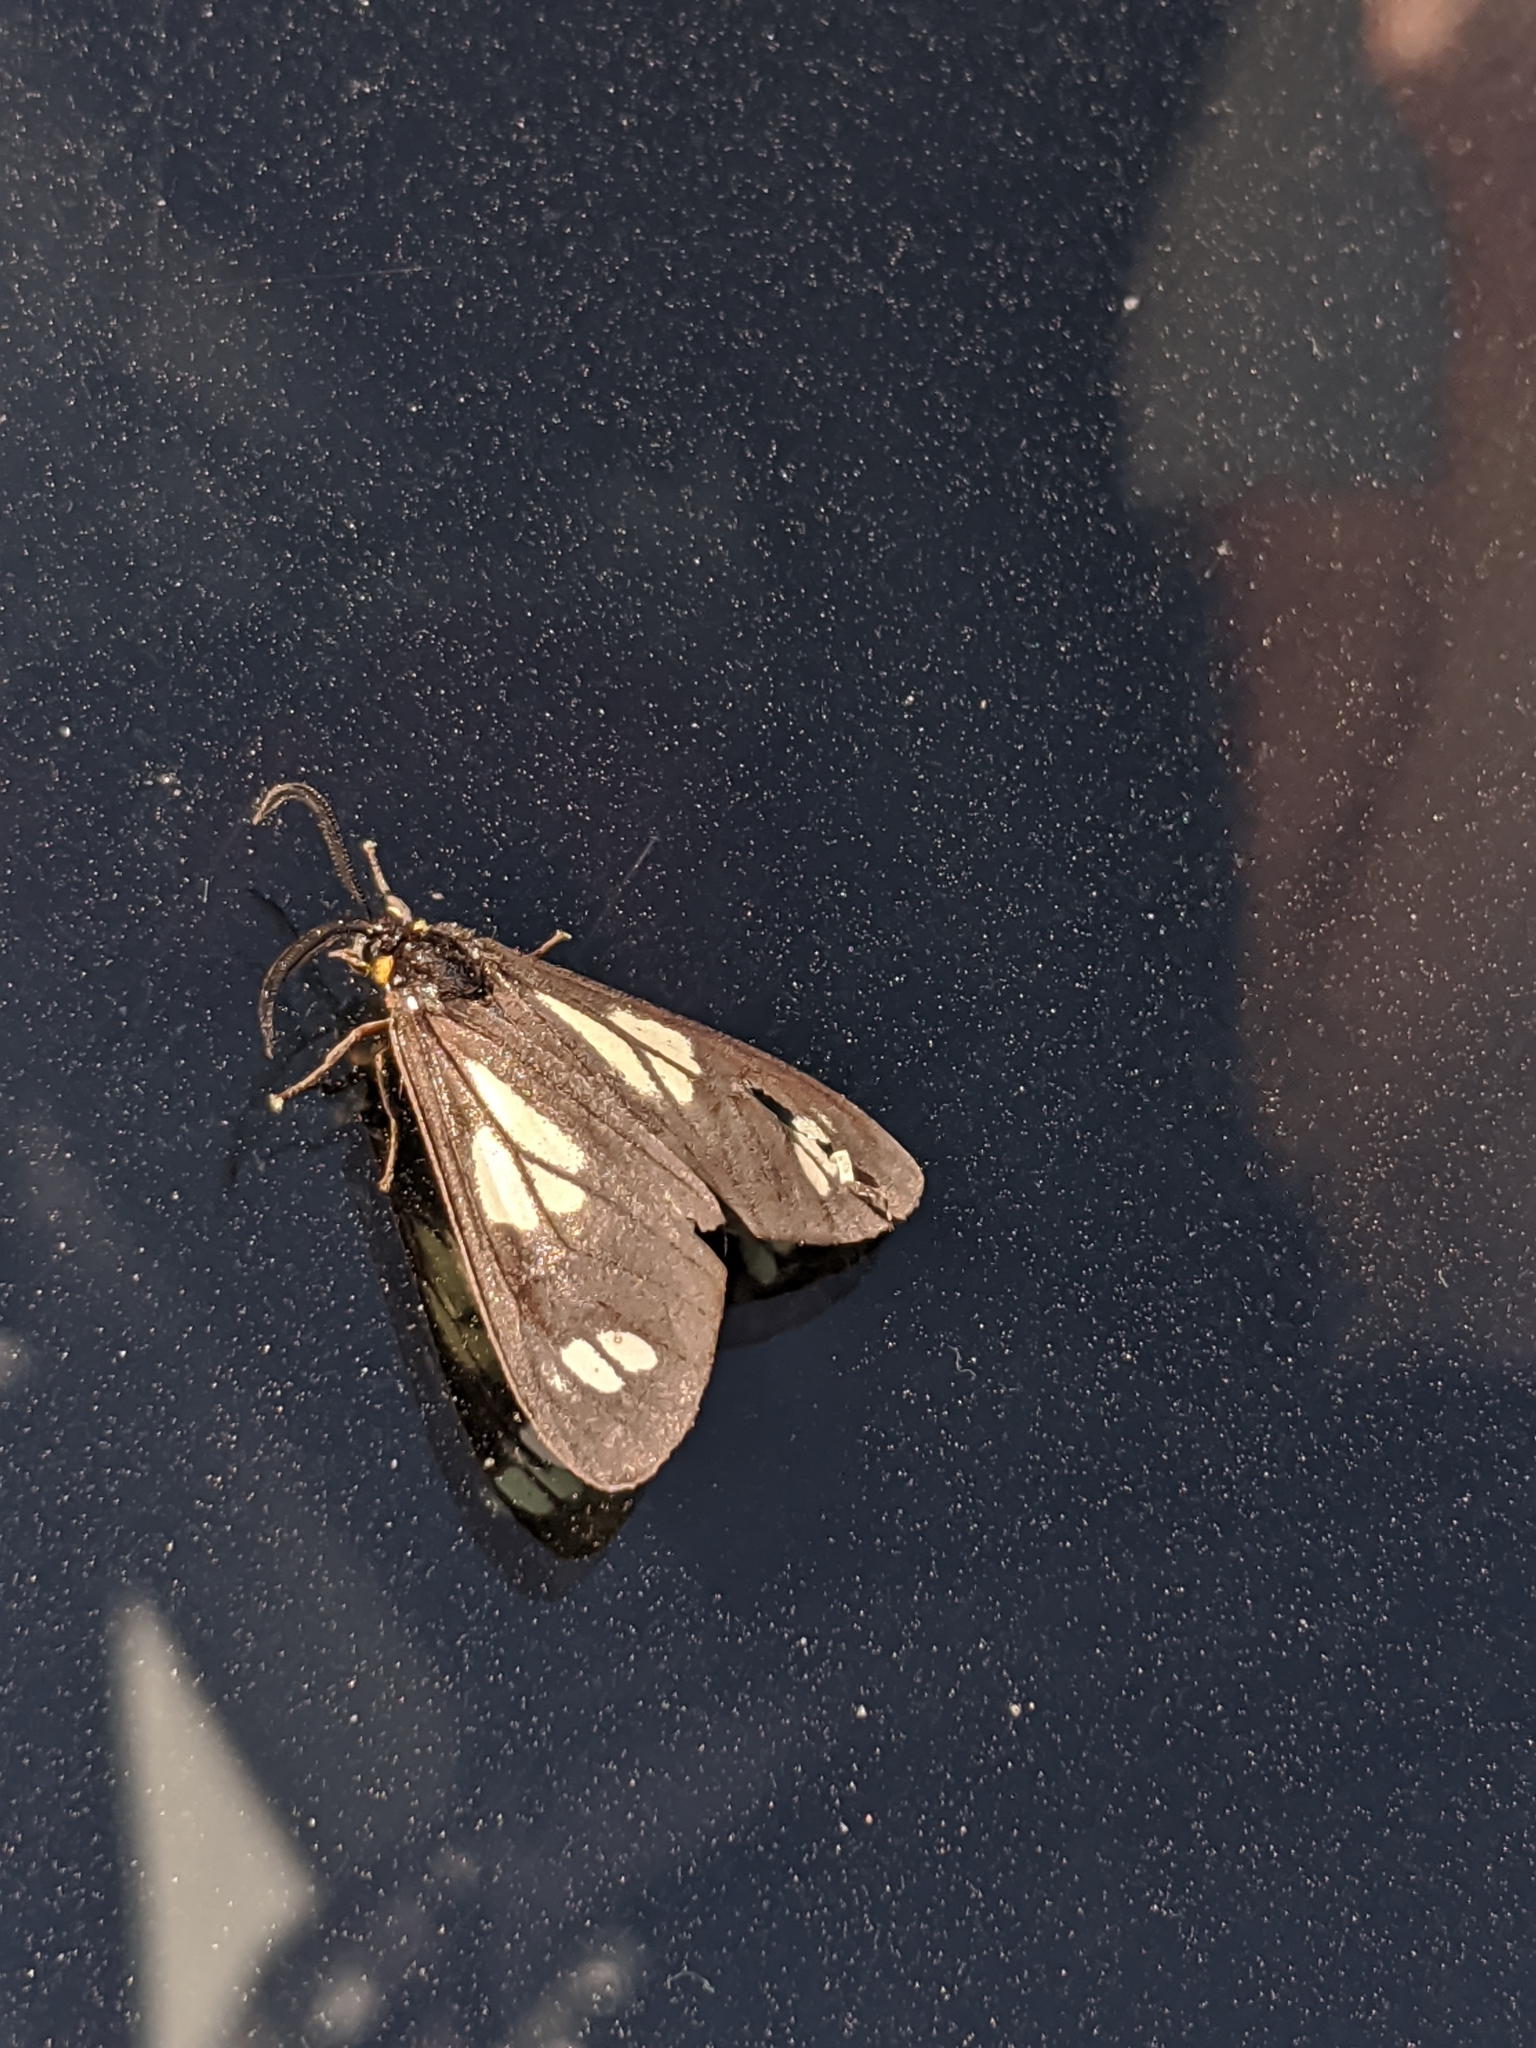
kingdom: Animalia
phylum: Arthropoda
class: Insecta
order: Lepidoptera
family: Erebidae
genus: Gnophaela
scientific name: Gnophaela vermiculata
